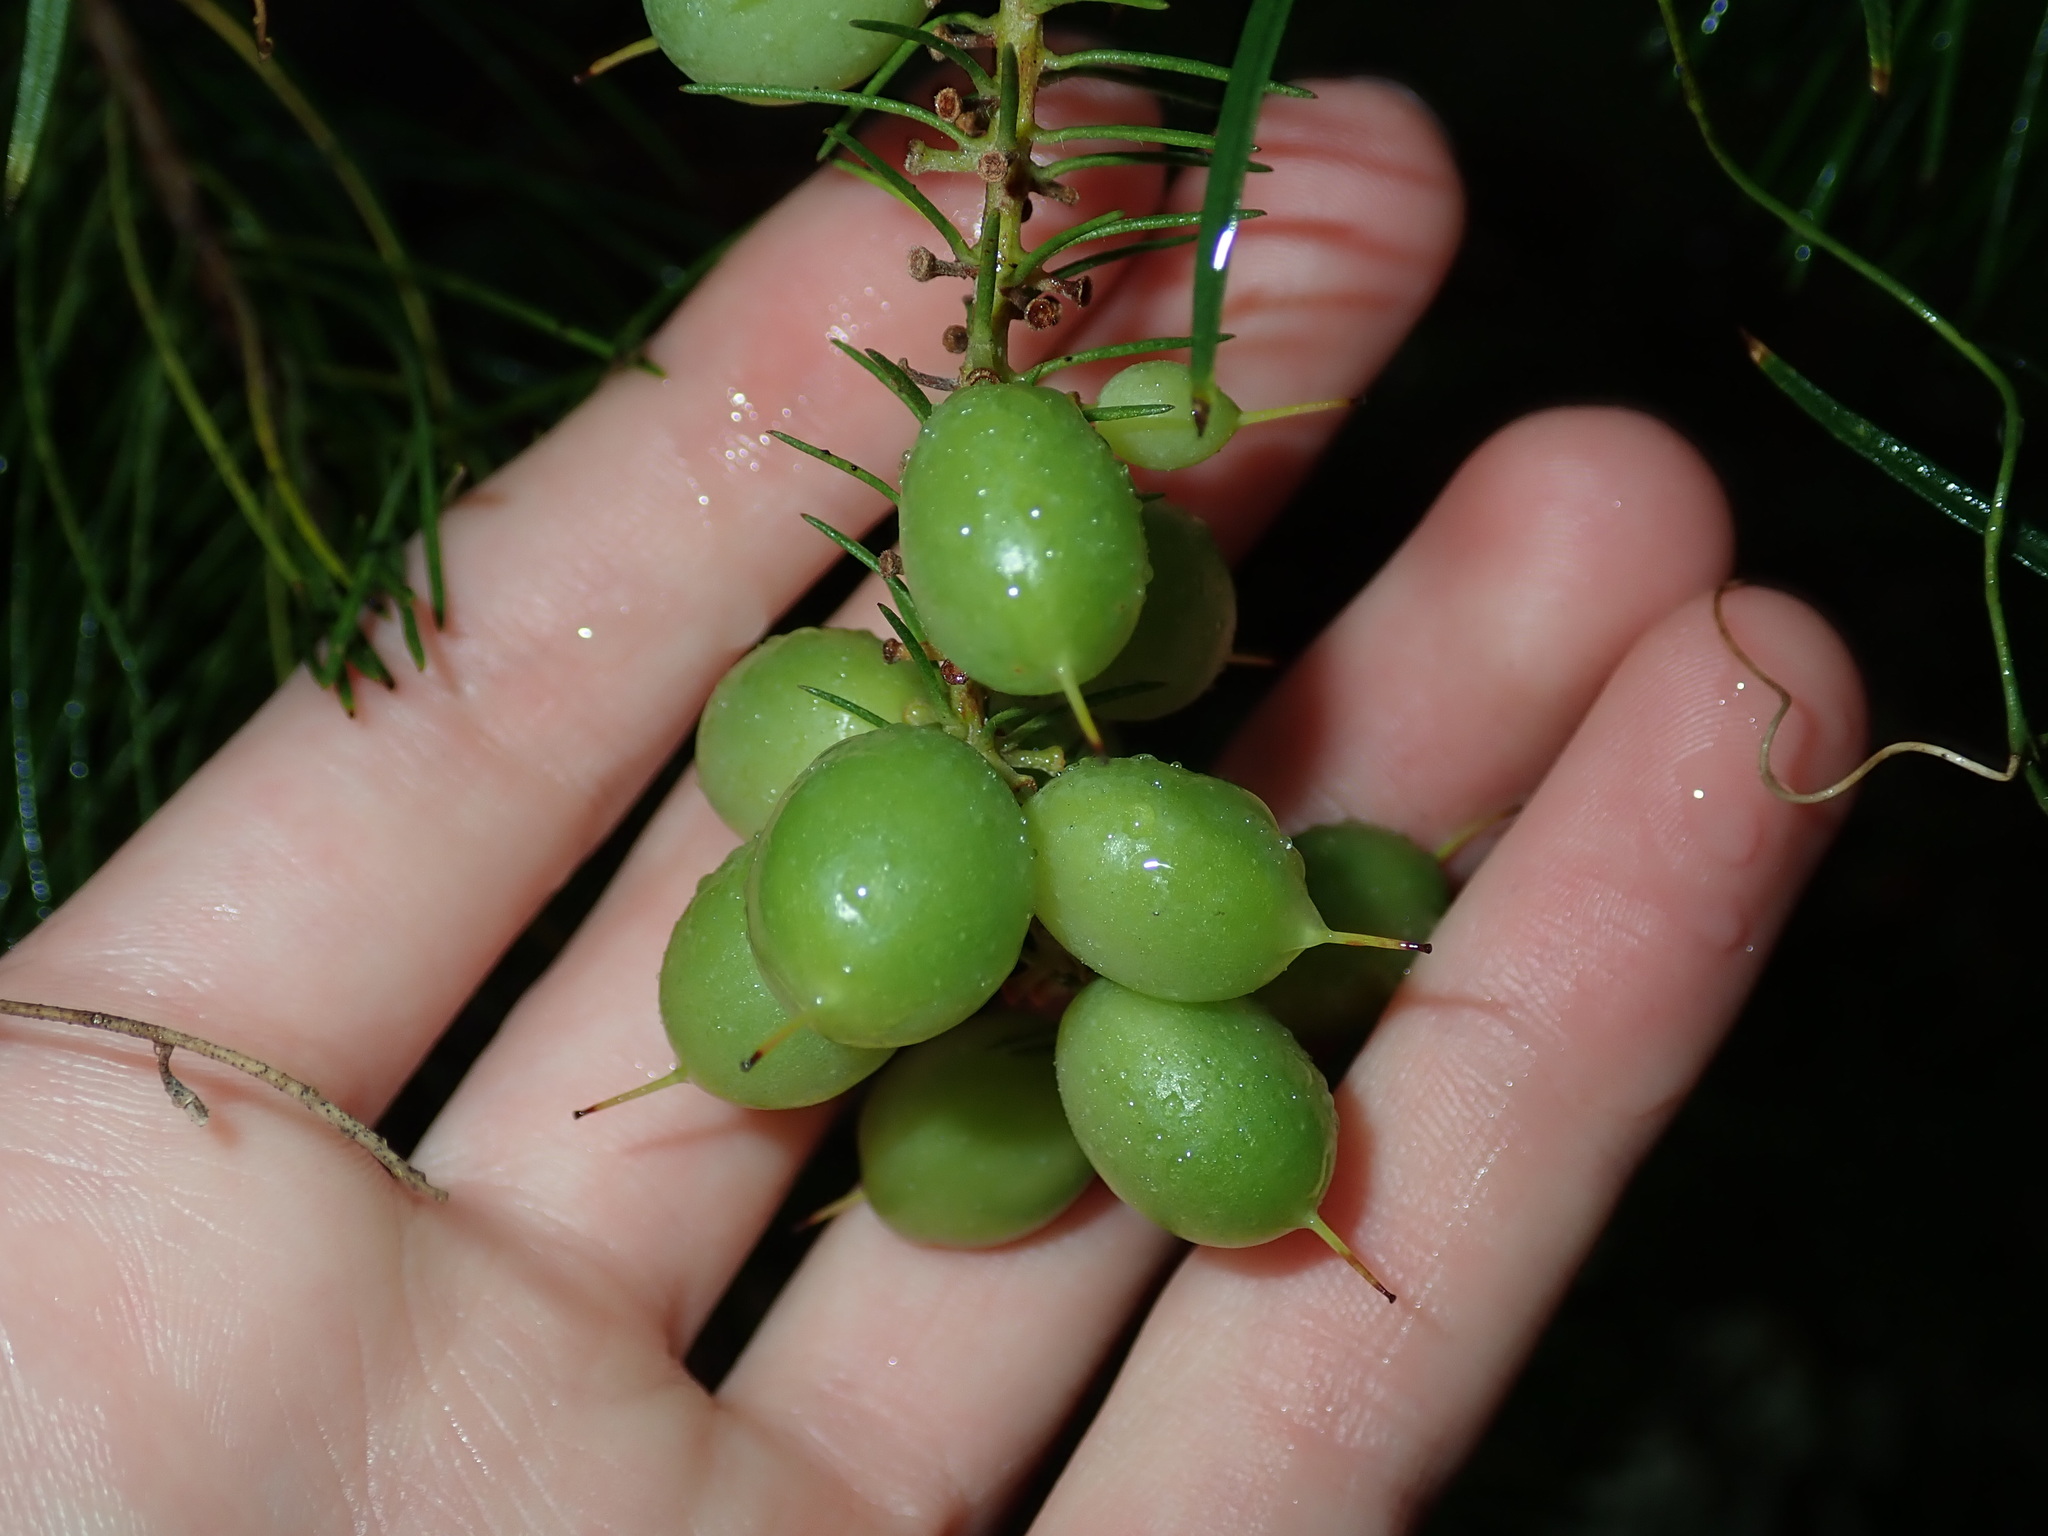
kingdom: Plantae
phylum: Tracheophyta
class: Magnoliopsida
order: Proteales
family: Proteaceae
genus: Persoonia
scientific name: Persoonia pinifolia
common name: Pine-leaf geebung
